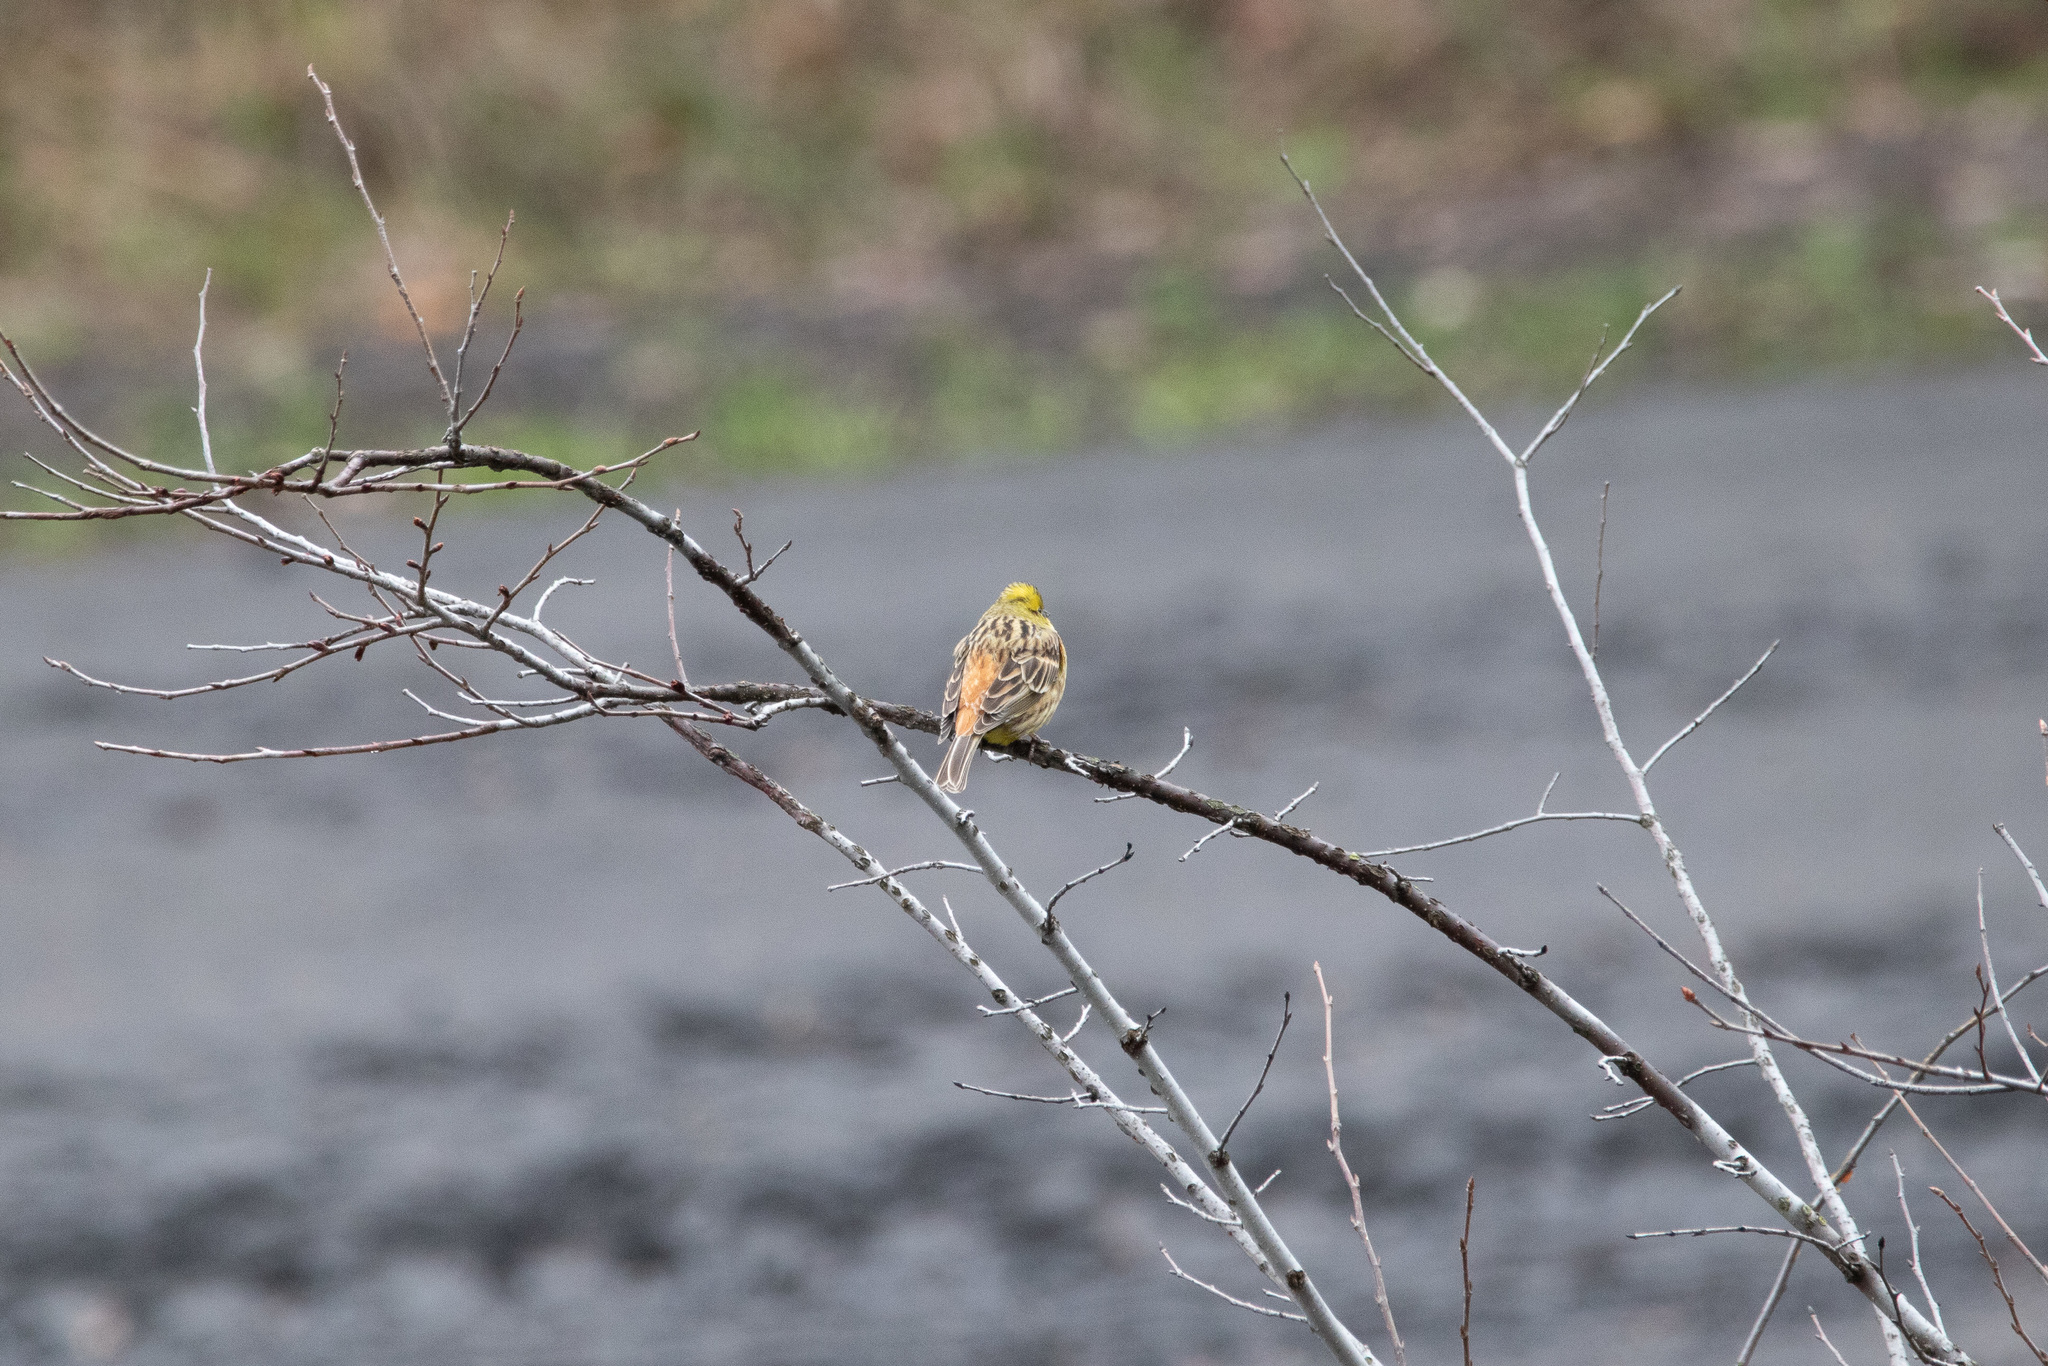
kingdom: Animalia
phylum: Chordata
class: Aves
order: Passeriformes
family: Emberizidae
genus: Emberiza
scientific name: Emberiza citrinella
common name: Yellowhammer
